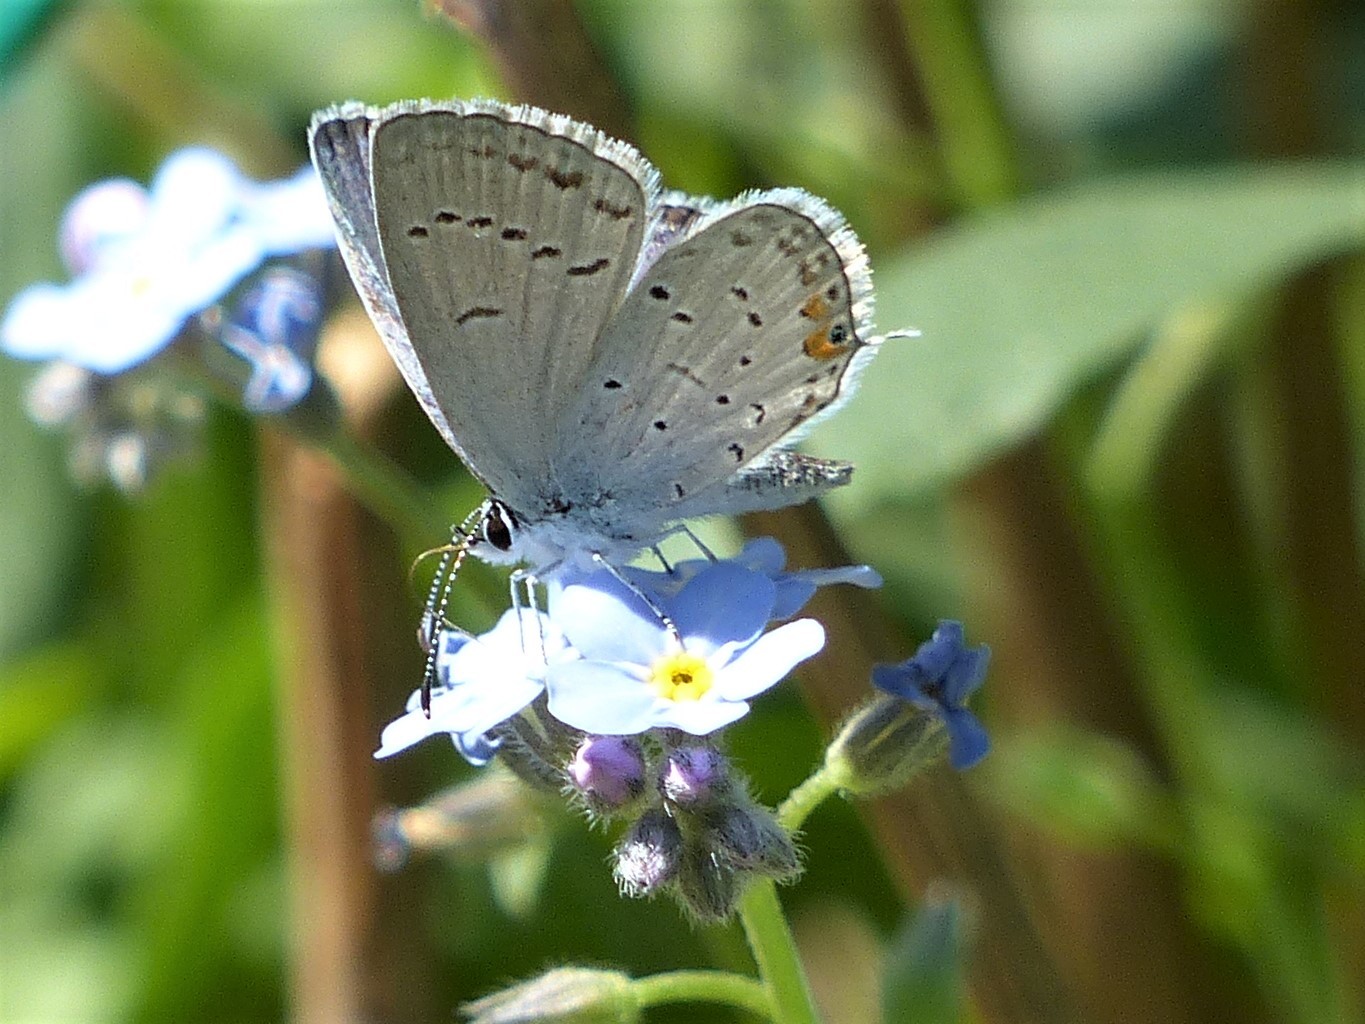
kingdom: Animalia
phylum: Arthropoda
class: Insecta
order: Lepidoptera
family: Lycaenidae
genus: Elkalyce
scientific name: Elkalyce comyntas
